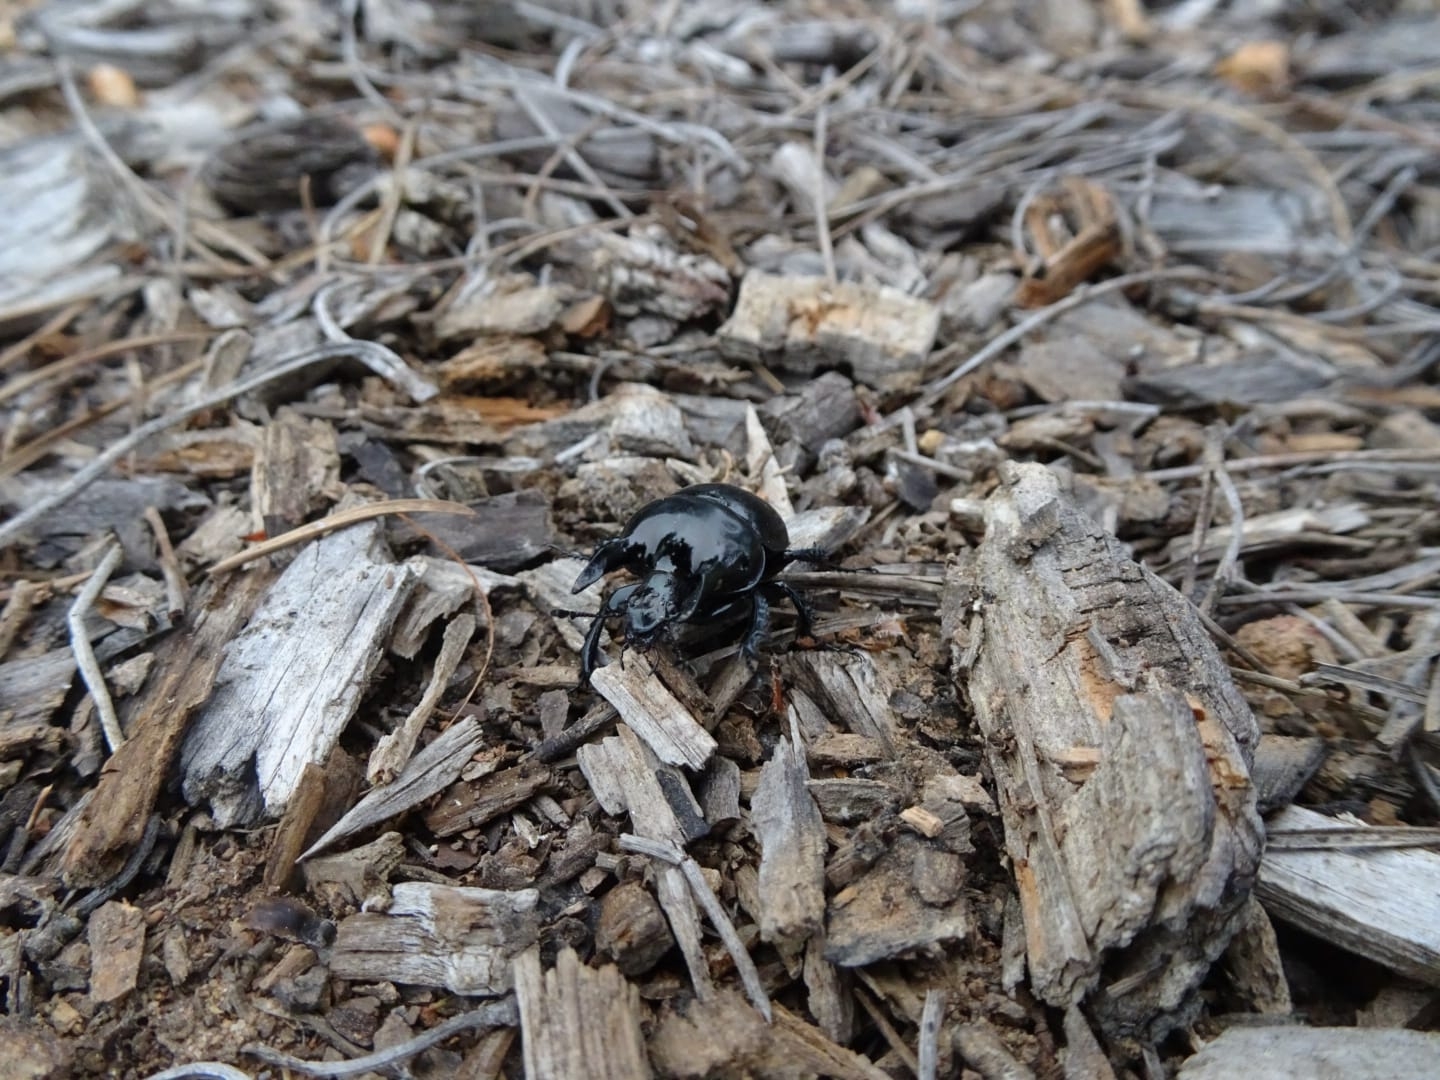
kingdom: Animalia
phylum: Arthropoda
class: Insecta
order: Coleoptera
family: Geotrupidae
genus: Chelotrupes
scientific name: Chelotrupes momus
